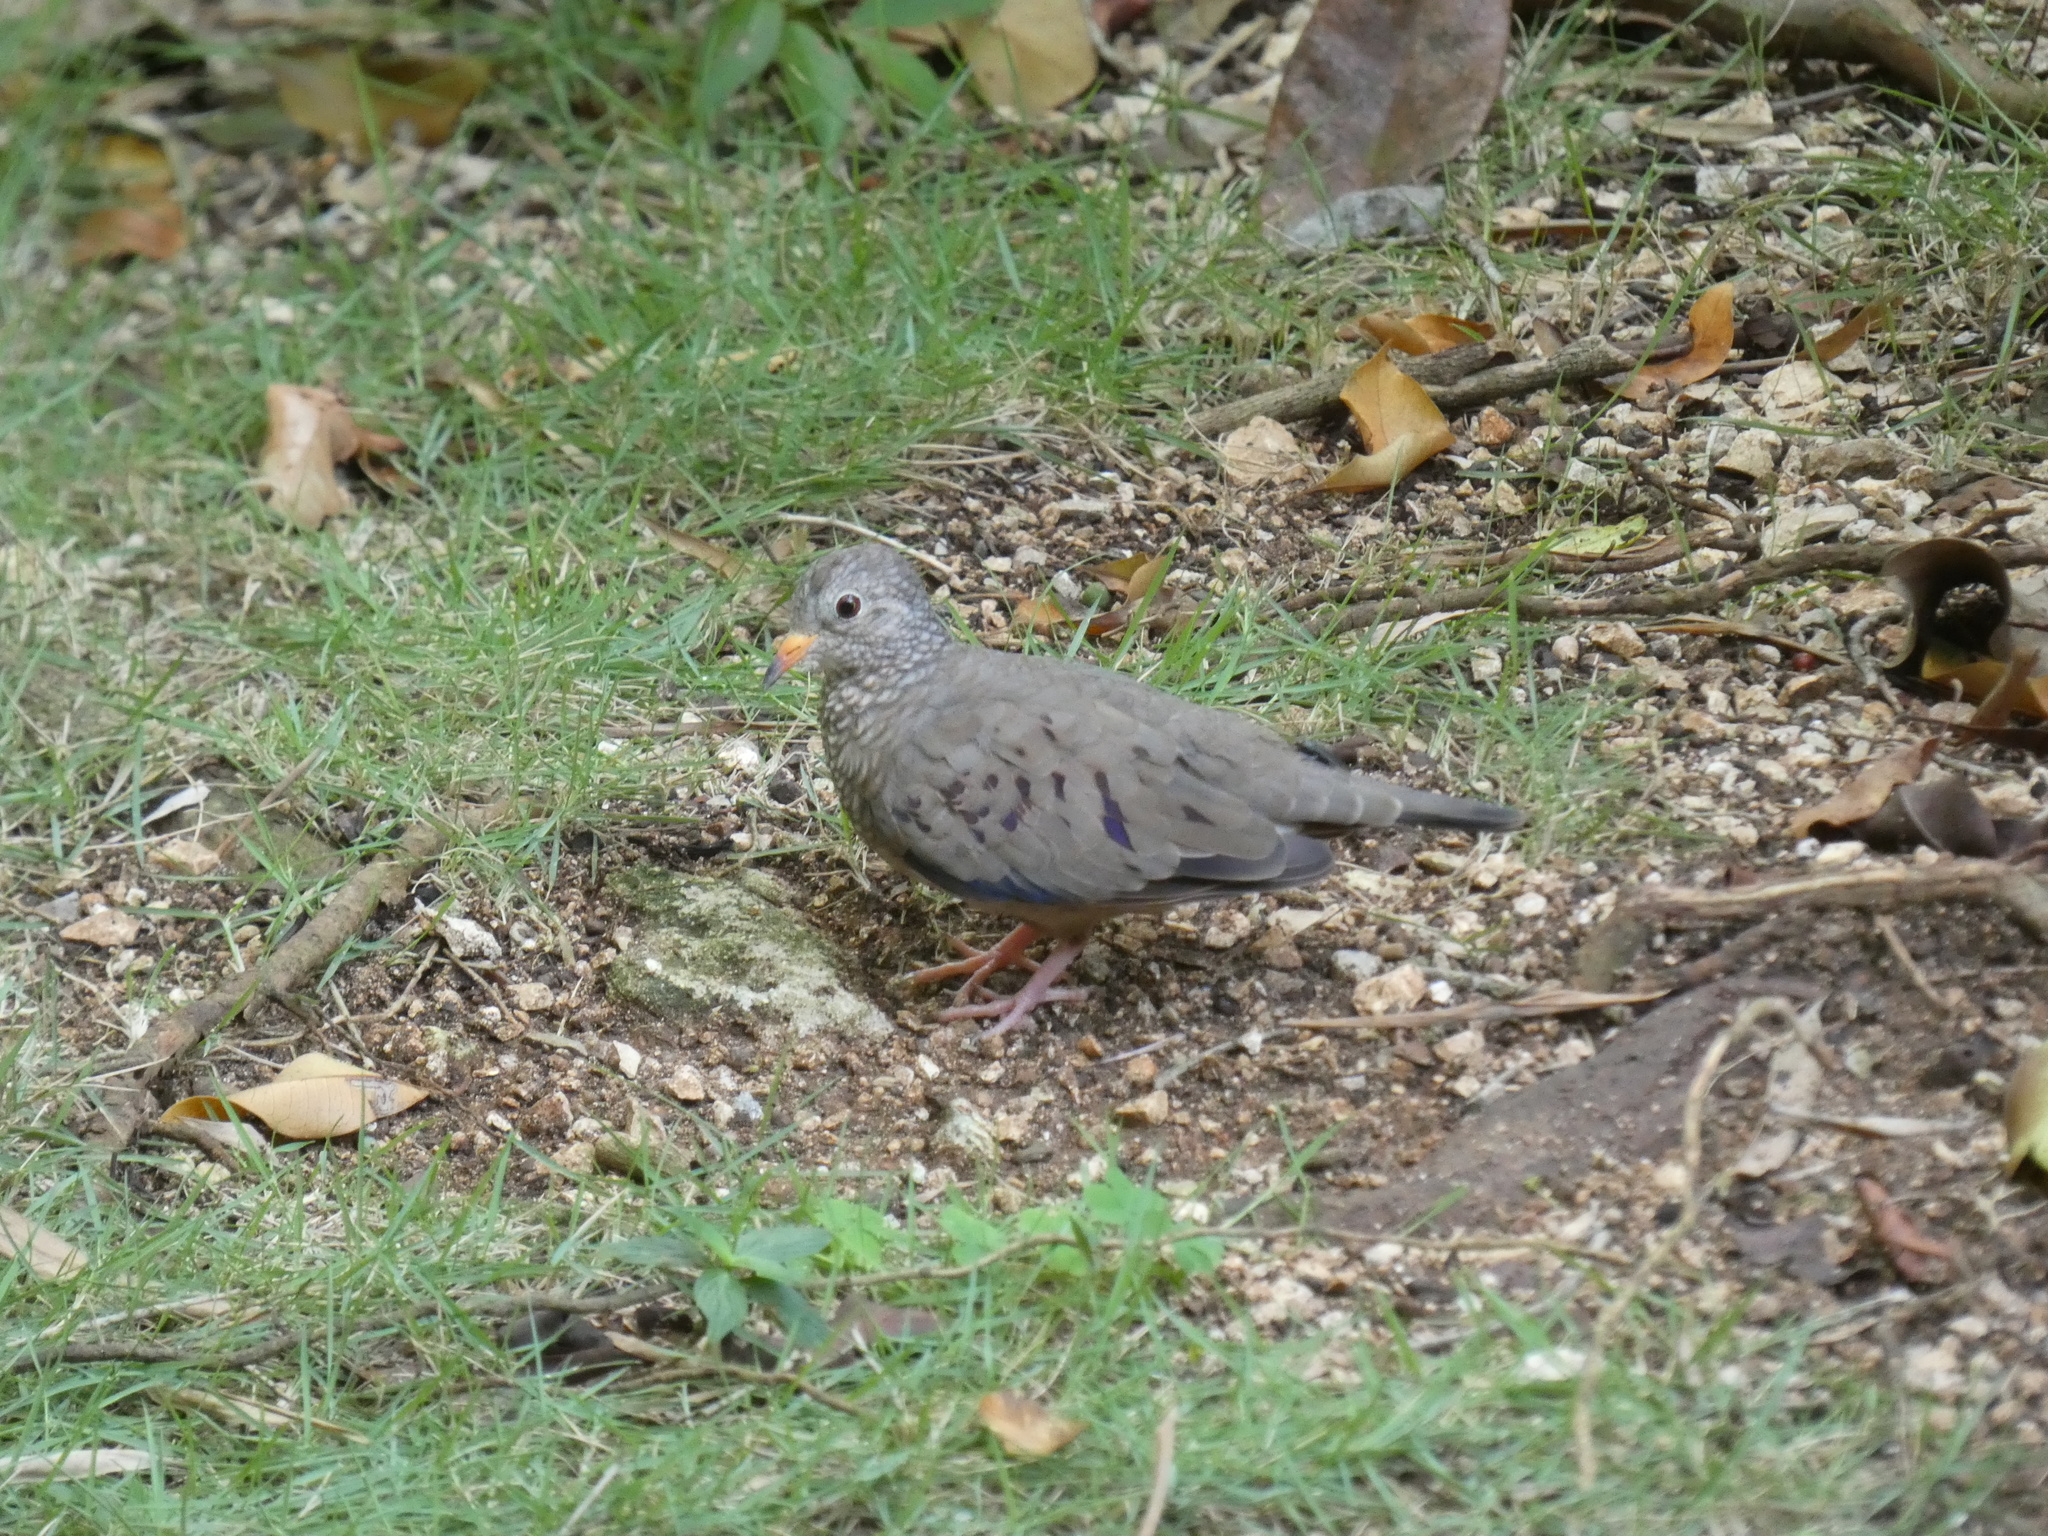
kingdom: Animalia
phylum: Chordata
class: Aves
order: Columbiformes
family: Columbidae
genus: Columbina
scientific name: Columbina passerina
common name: Common ground-dove
